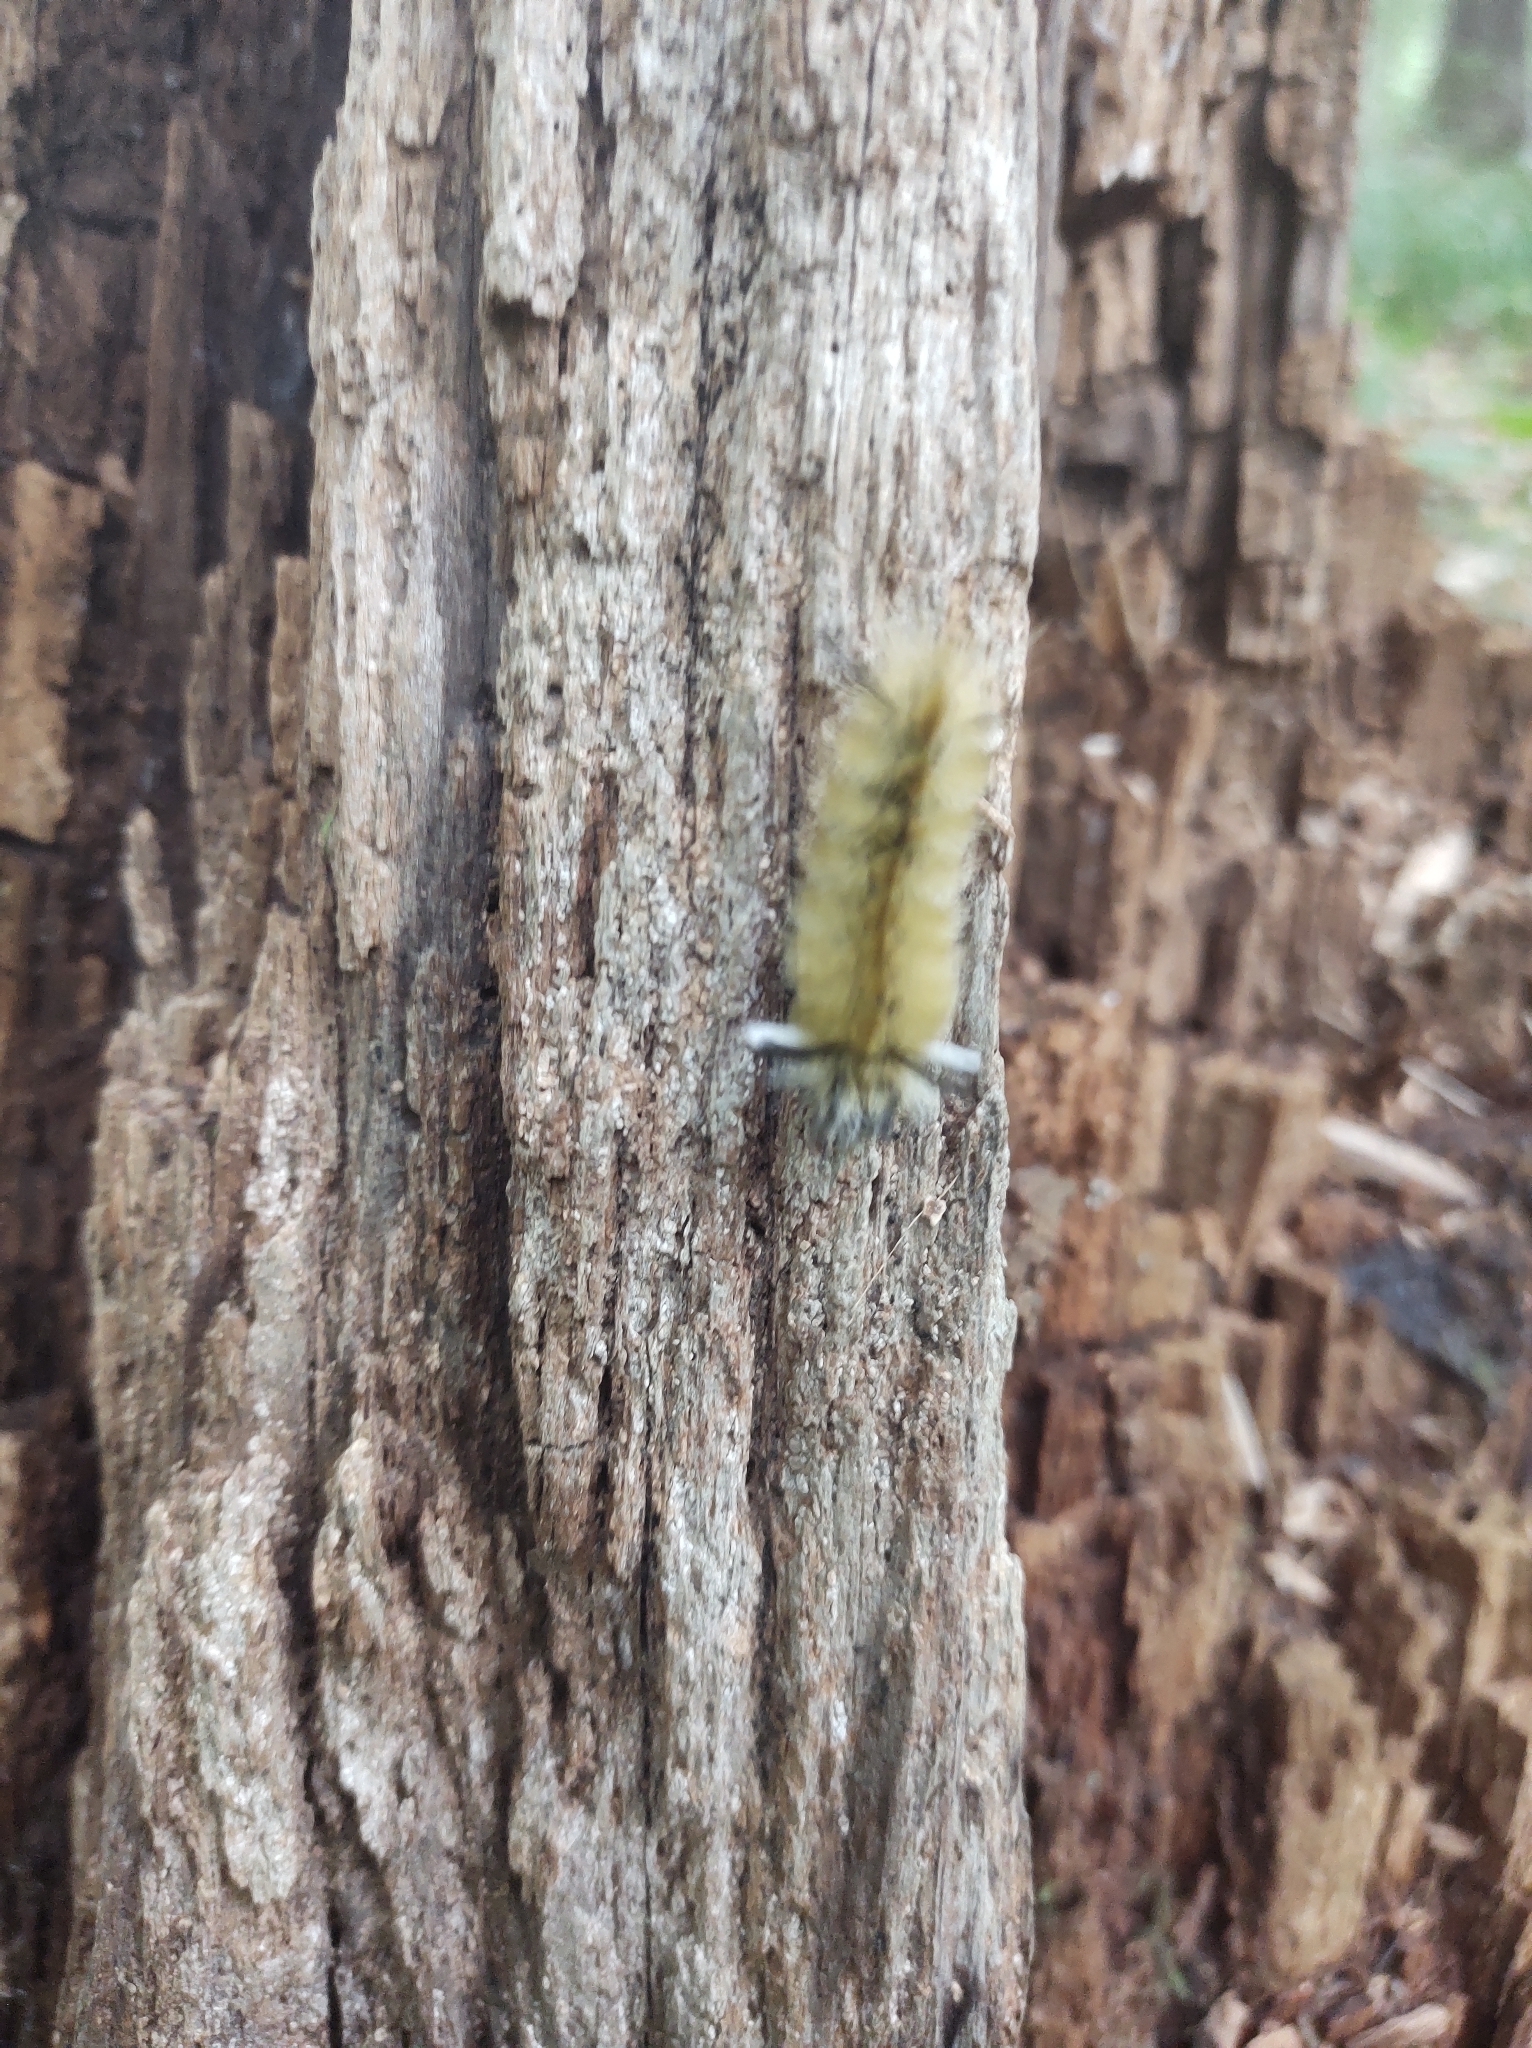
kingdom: Animalia
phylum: Arthropoda
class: Insecta
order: Lepidoptera
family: Erebidae
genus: Halysidota
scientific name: Halysidota tessellaris
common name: Banded tussock moth
